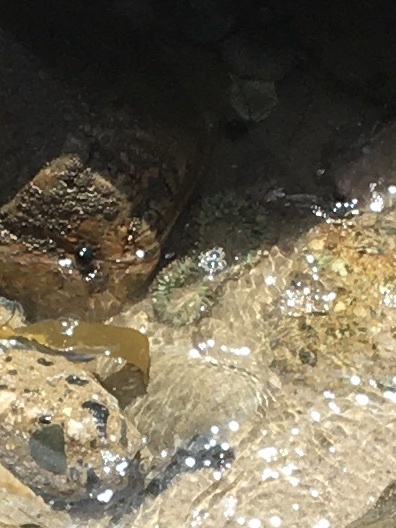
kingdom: Animalia
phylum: Cnidaria
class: Anthozoa
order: Actiniaria
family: Actiniidae
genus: Anthopleura
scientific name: Anthopleura sola
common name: Sun anemone
